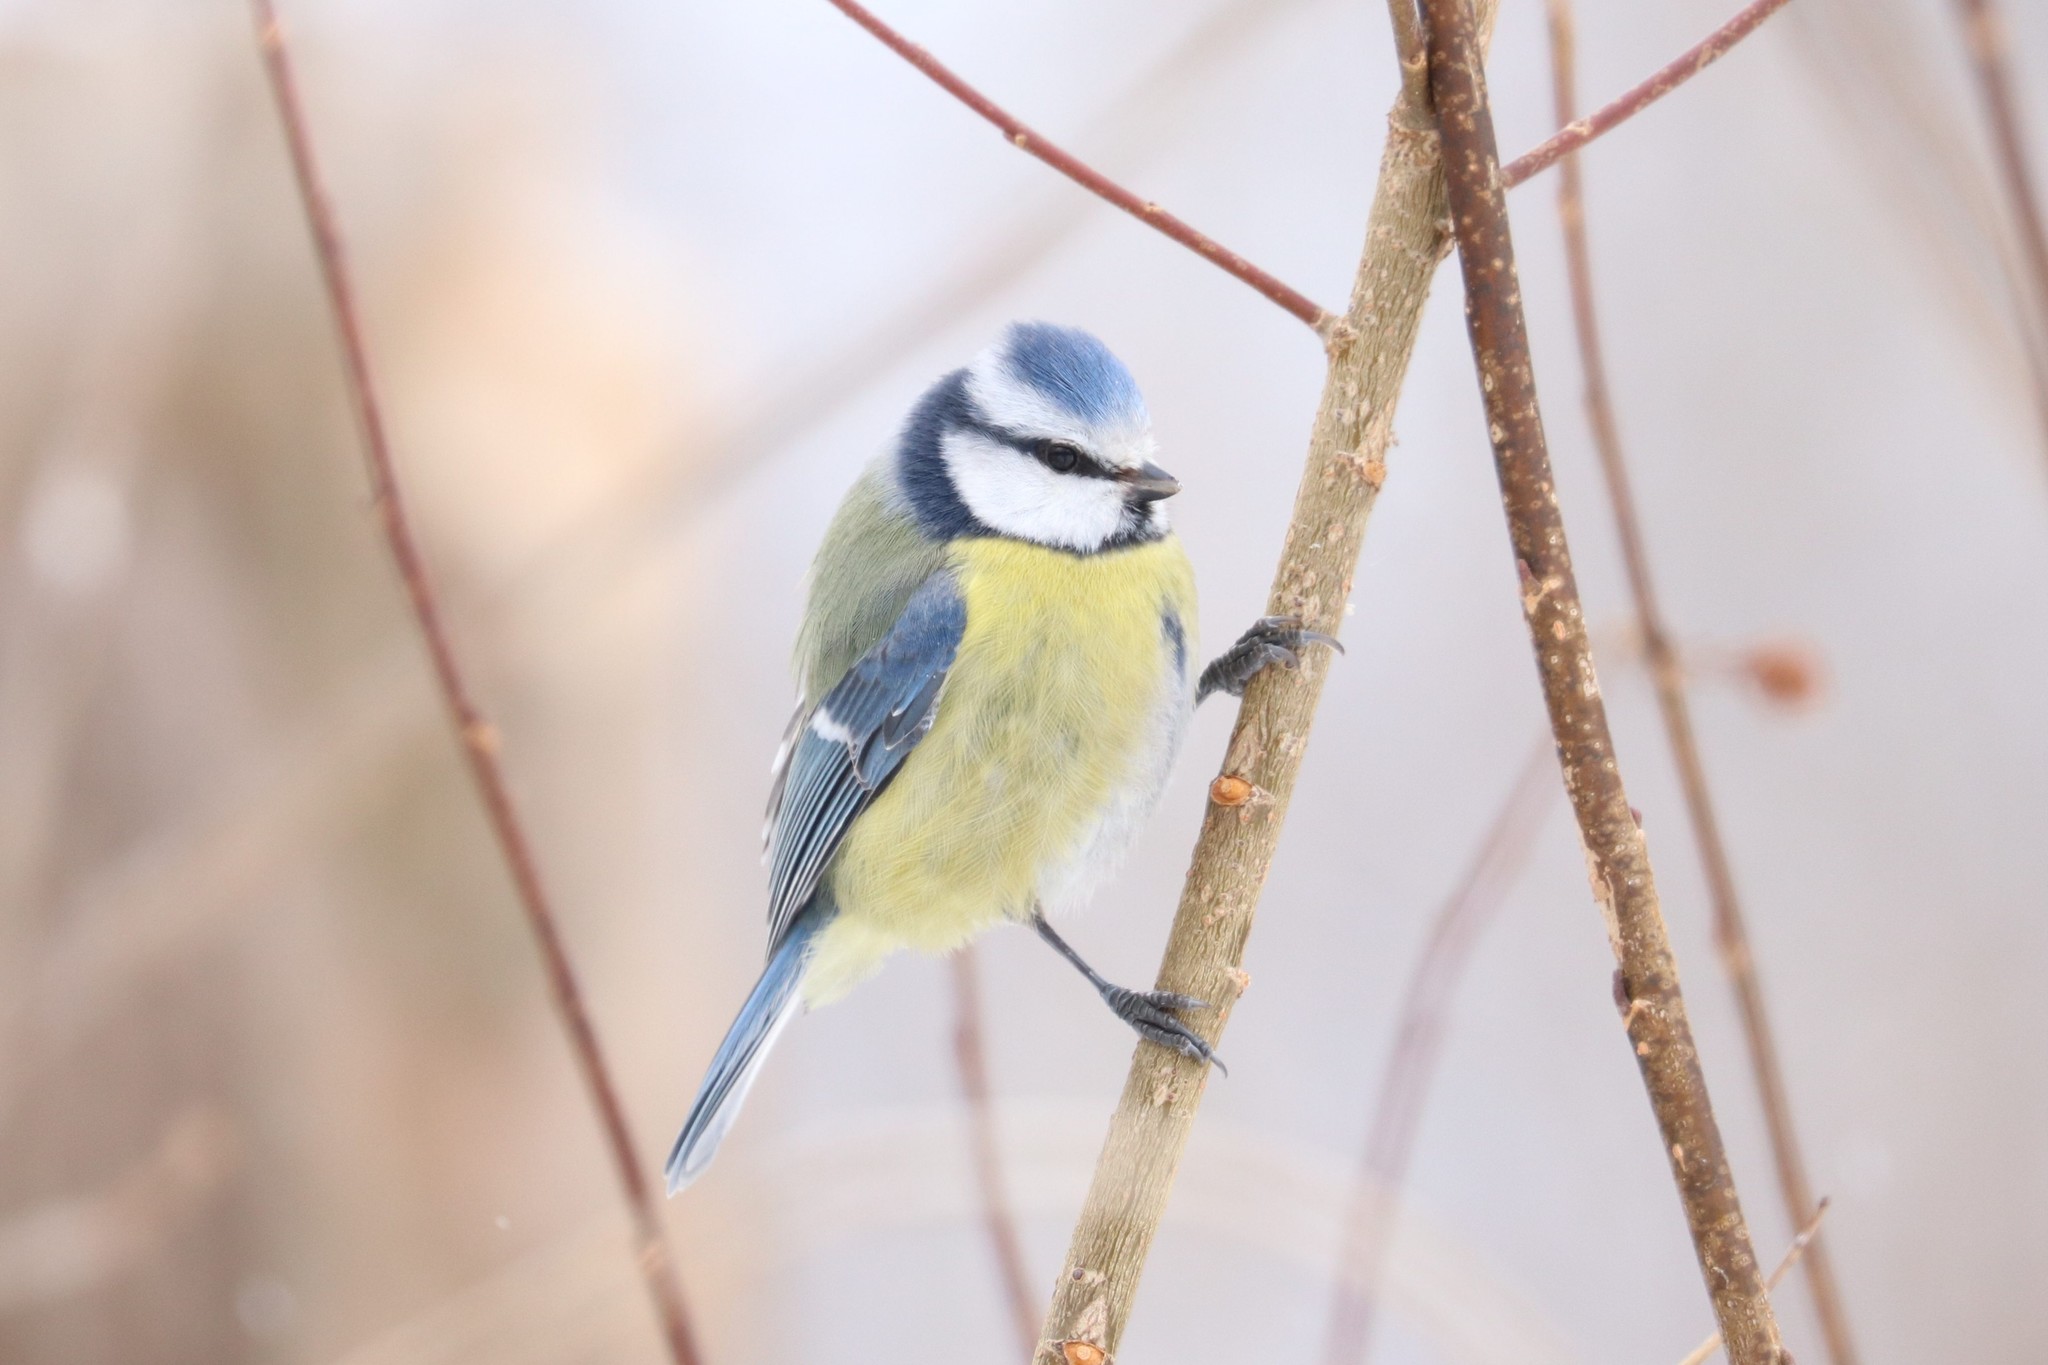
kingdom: Animalia
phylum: Chordata
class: Aves
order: Passeriformes
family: Paridae
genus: Cyanistes
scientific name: Cyanistes caeruleus
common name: Eurasian blue tit
